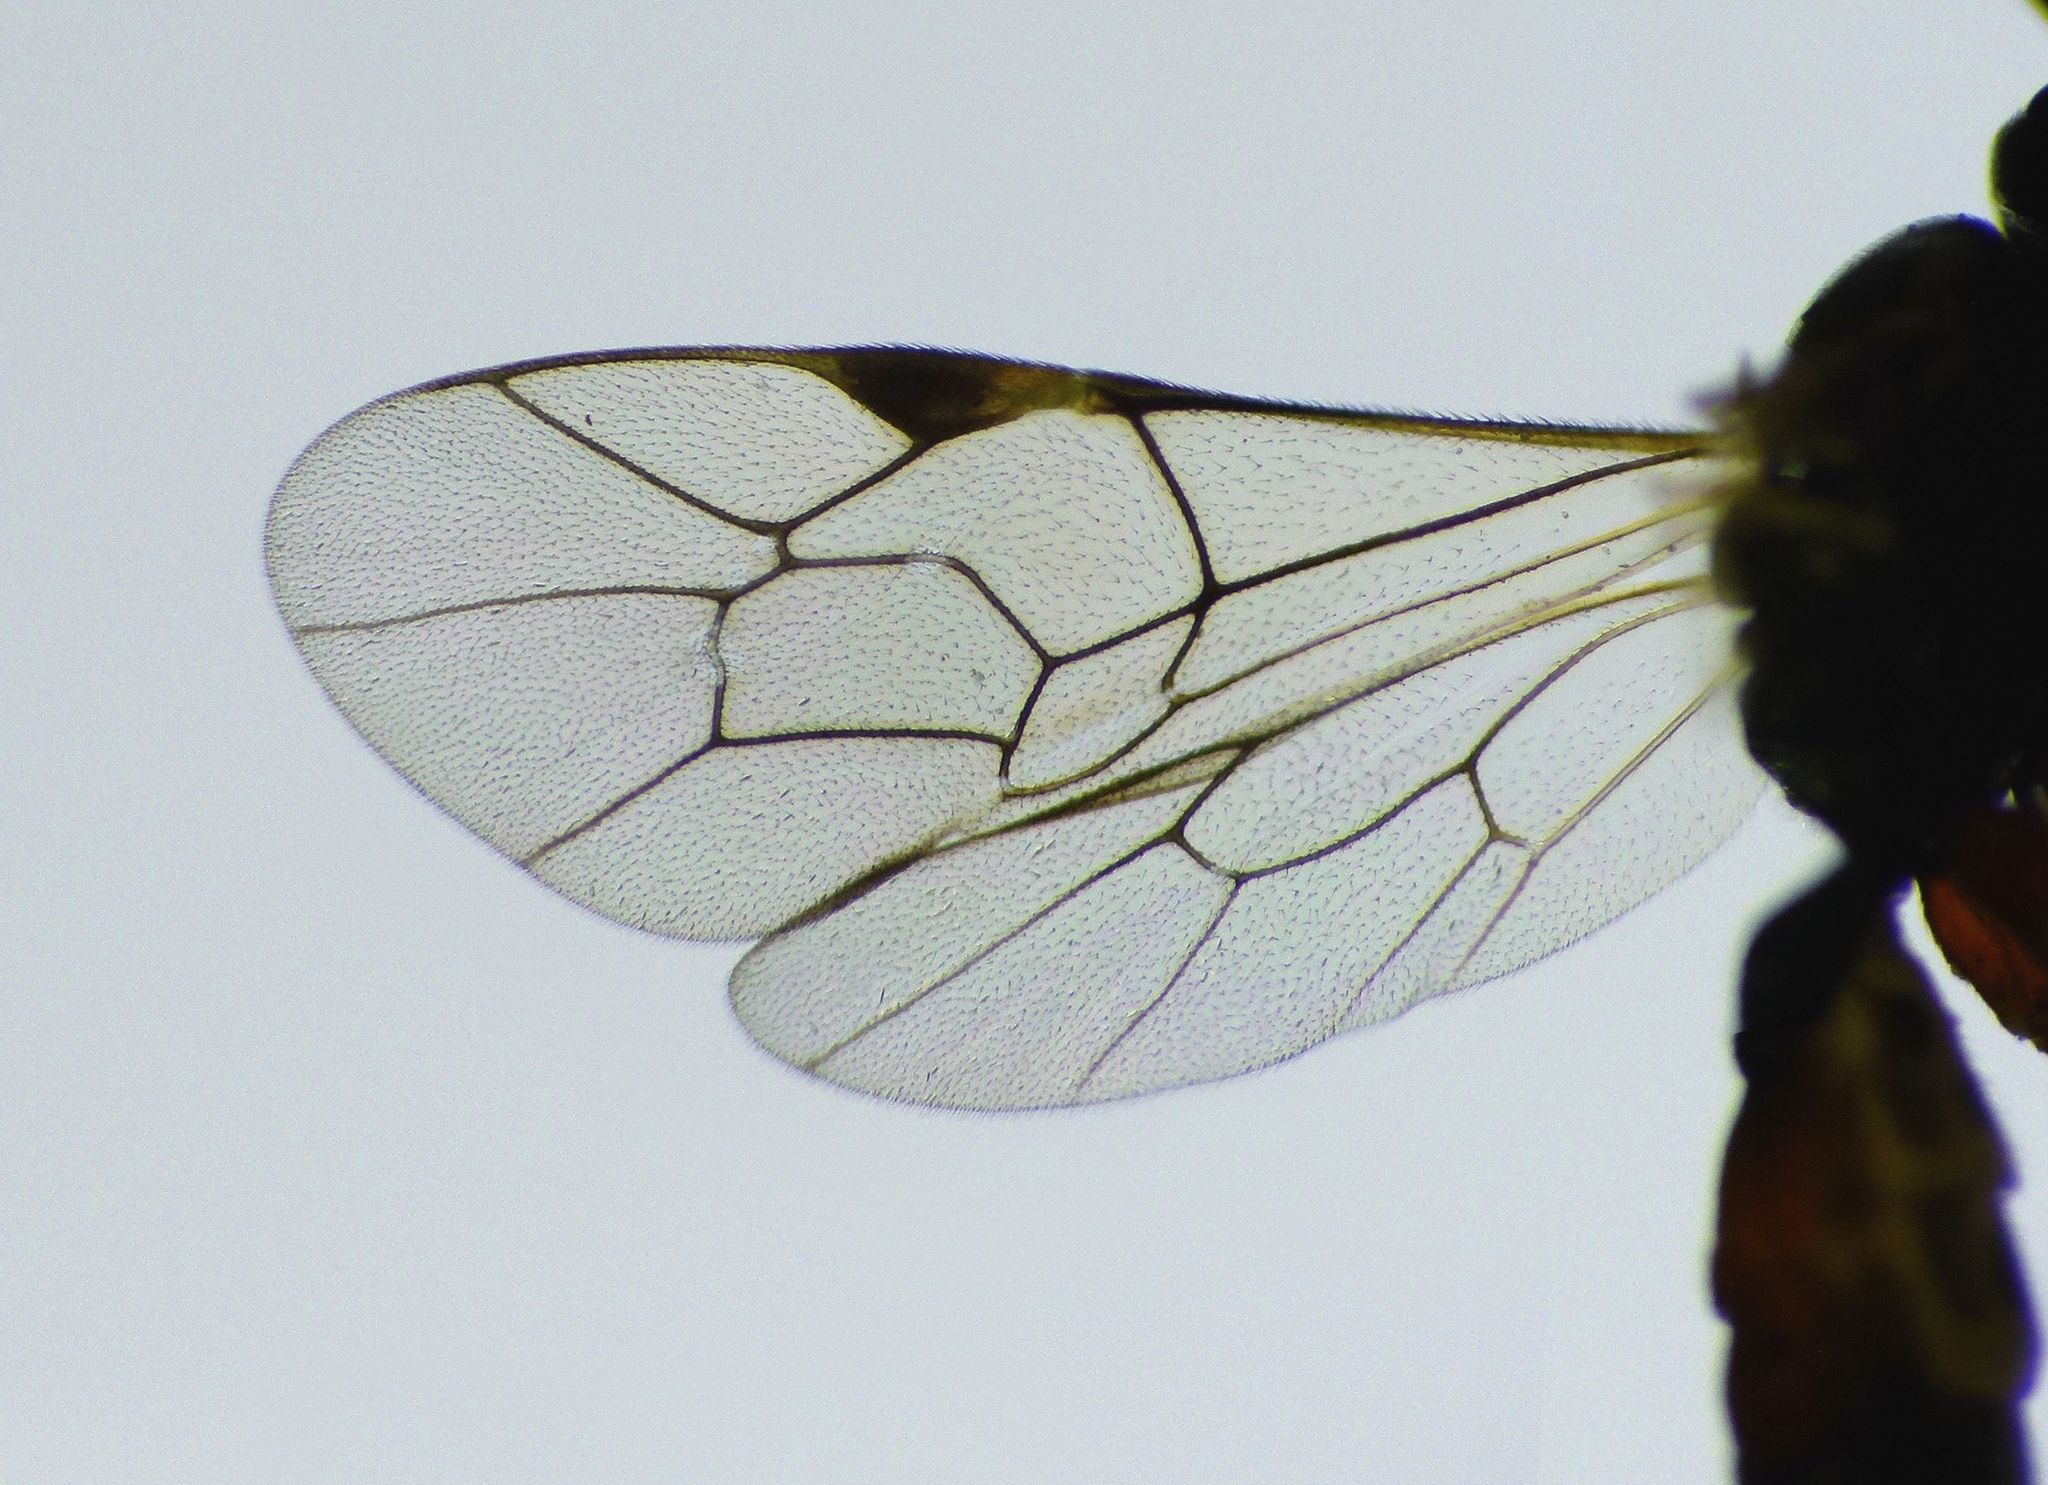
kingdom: Animalia
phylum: Arthropoda
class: Insecta
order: Hymenoptera
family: Ichneumonidae
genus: Diplazon
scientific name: Diplazon laetatorius
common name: Parasitoid wasp
